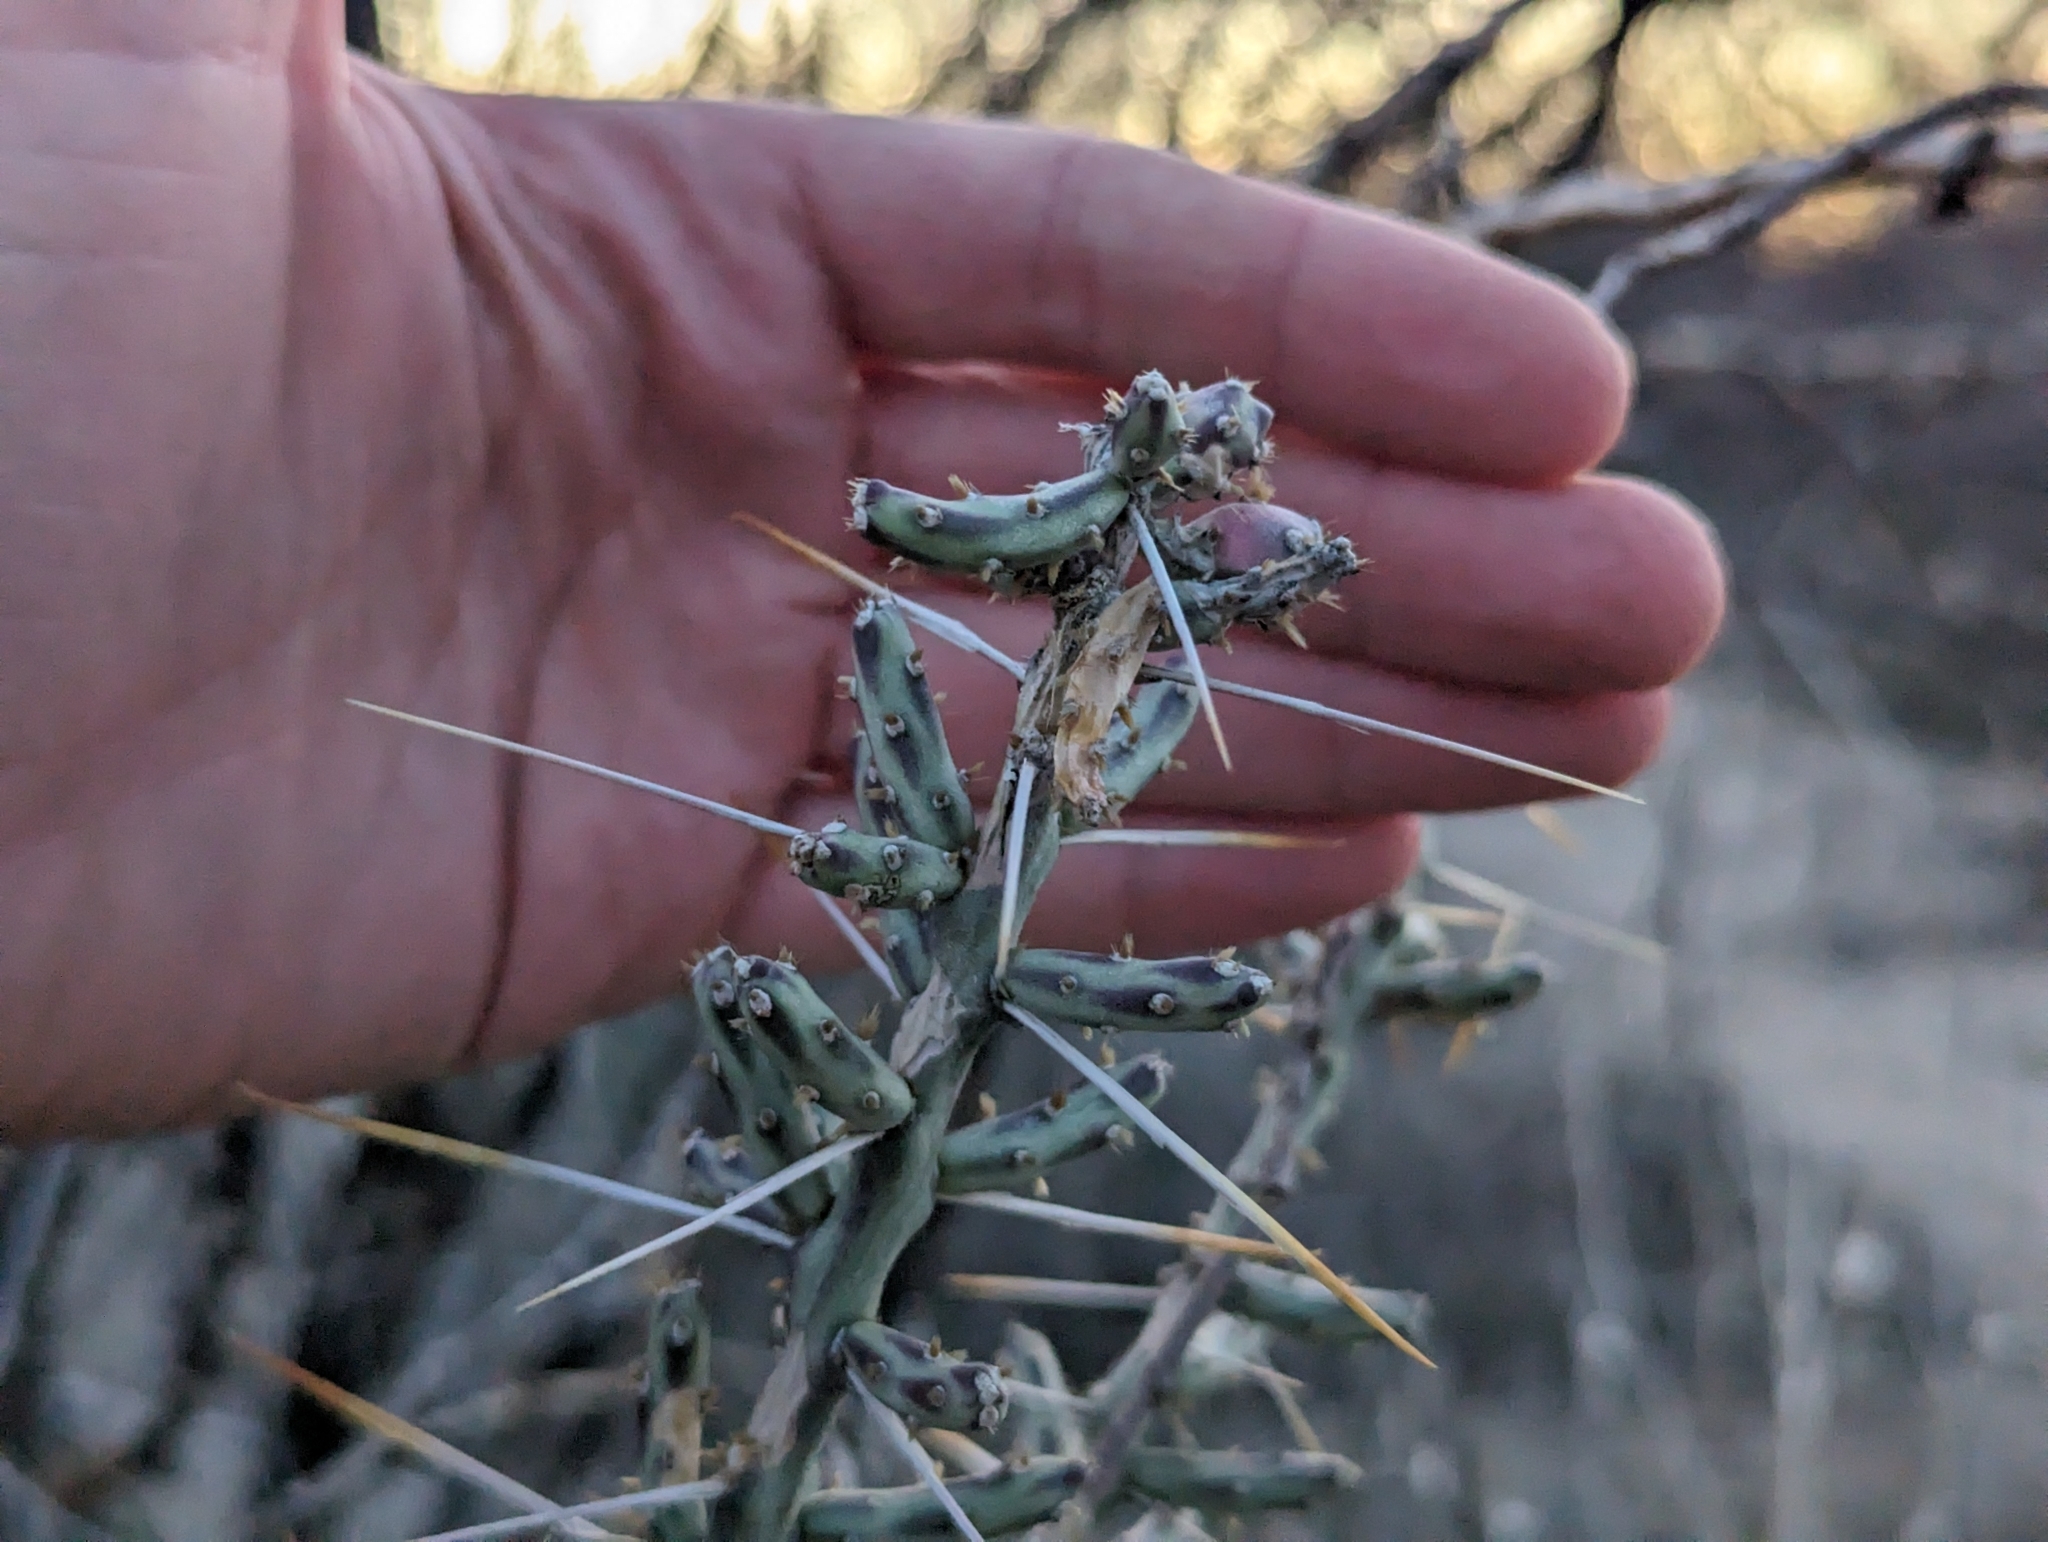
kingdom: Plantae
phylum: Tracheophyta
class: Magnoliopsida
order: Caryophyllales
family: Cactaceae
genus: Cylindropuntia
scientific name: Cylindropuntia leptocaulis
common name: Christmas cactus
